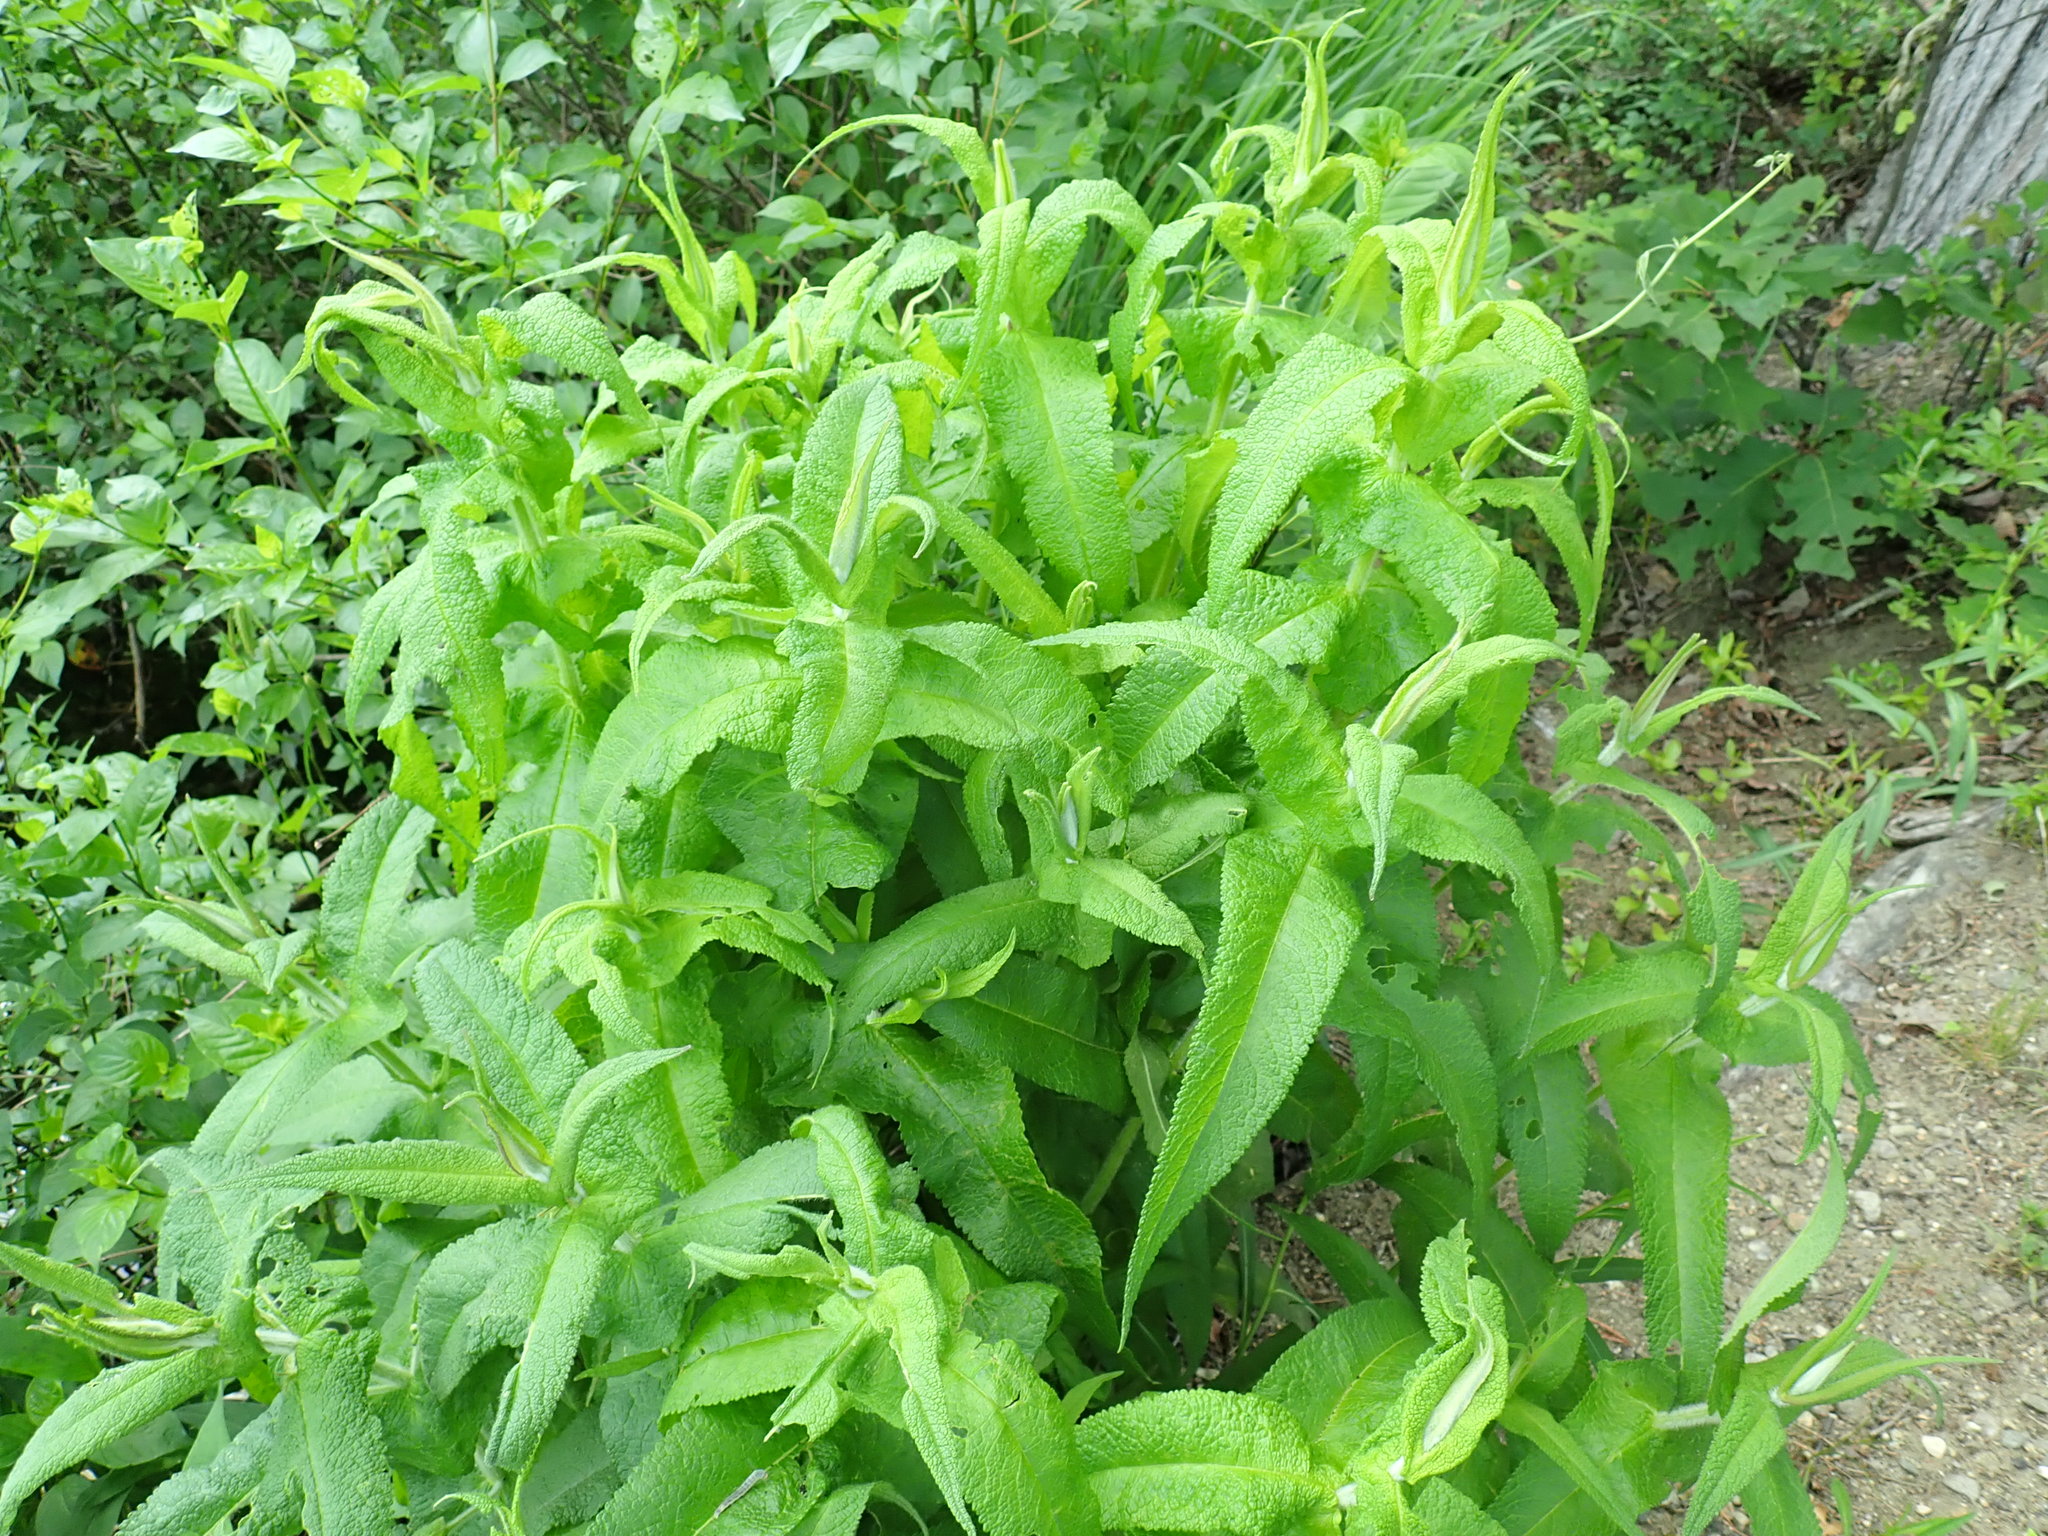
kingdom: Plantae
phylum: Tracheophyta
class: Magnoliopsida
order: Asterales
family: Asteraceae
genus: Eupatorium
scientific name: Eupatorium perfoliatum
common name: Boneset
